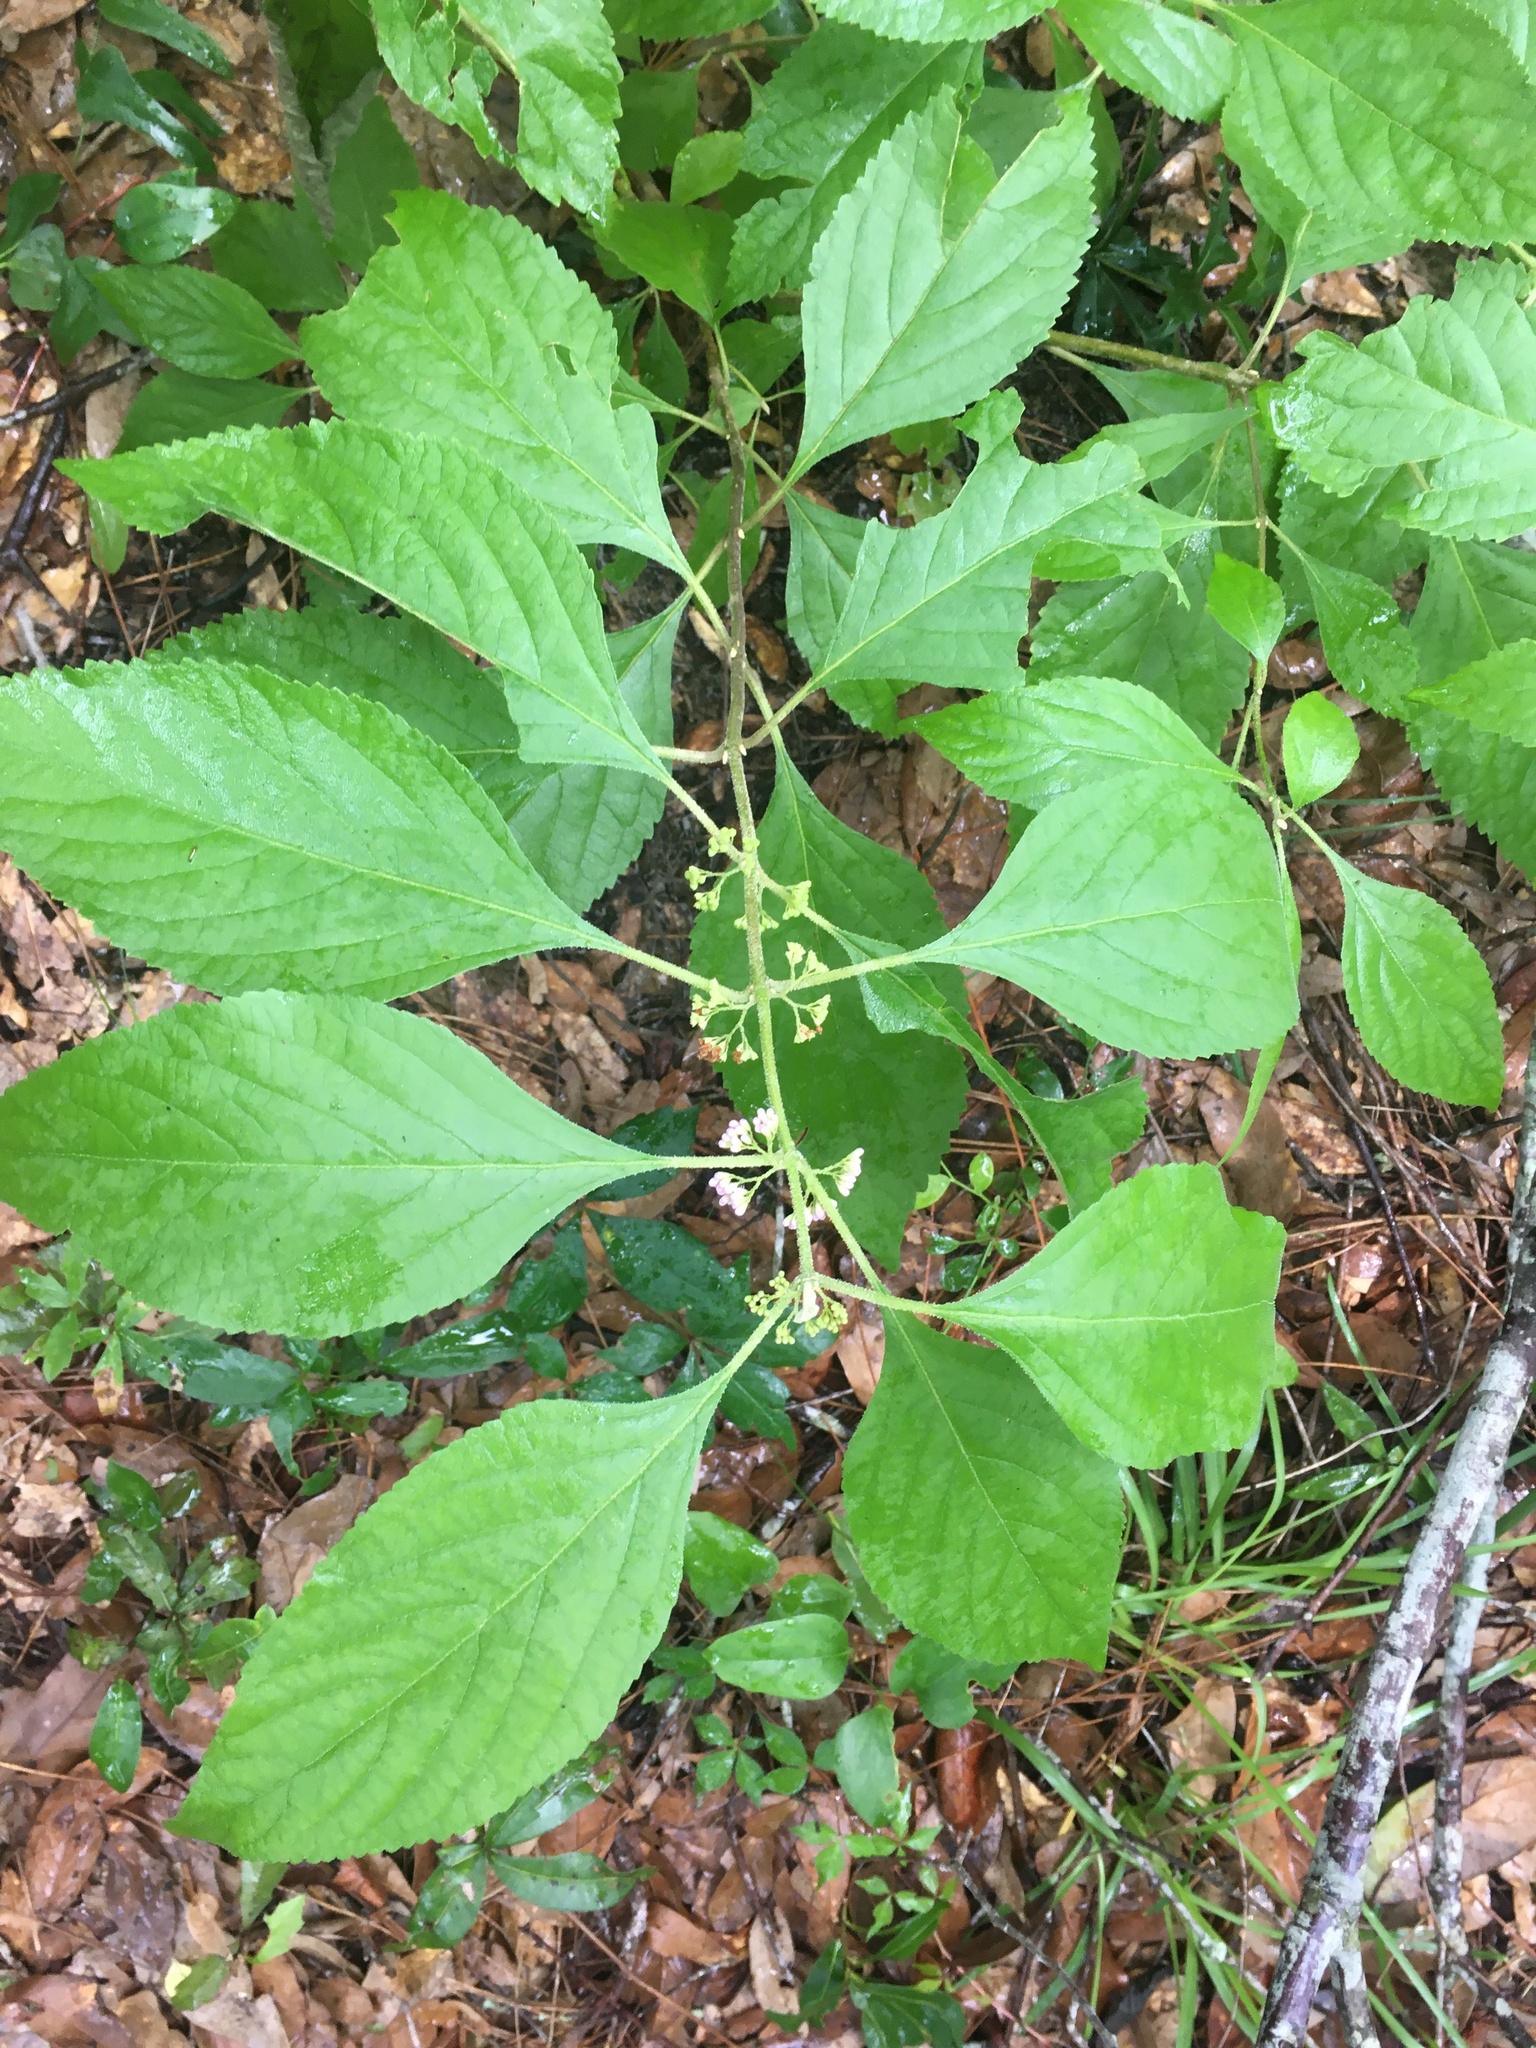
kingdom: Plantae
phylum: Tracheophyta
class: Magnoliopsida
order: Lamiales
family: Lamiaceae
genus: Callicarpa
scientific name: Callicarpa americana
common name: American beautyberry
